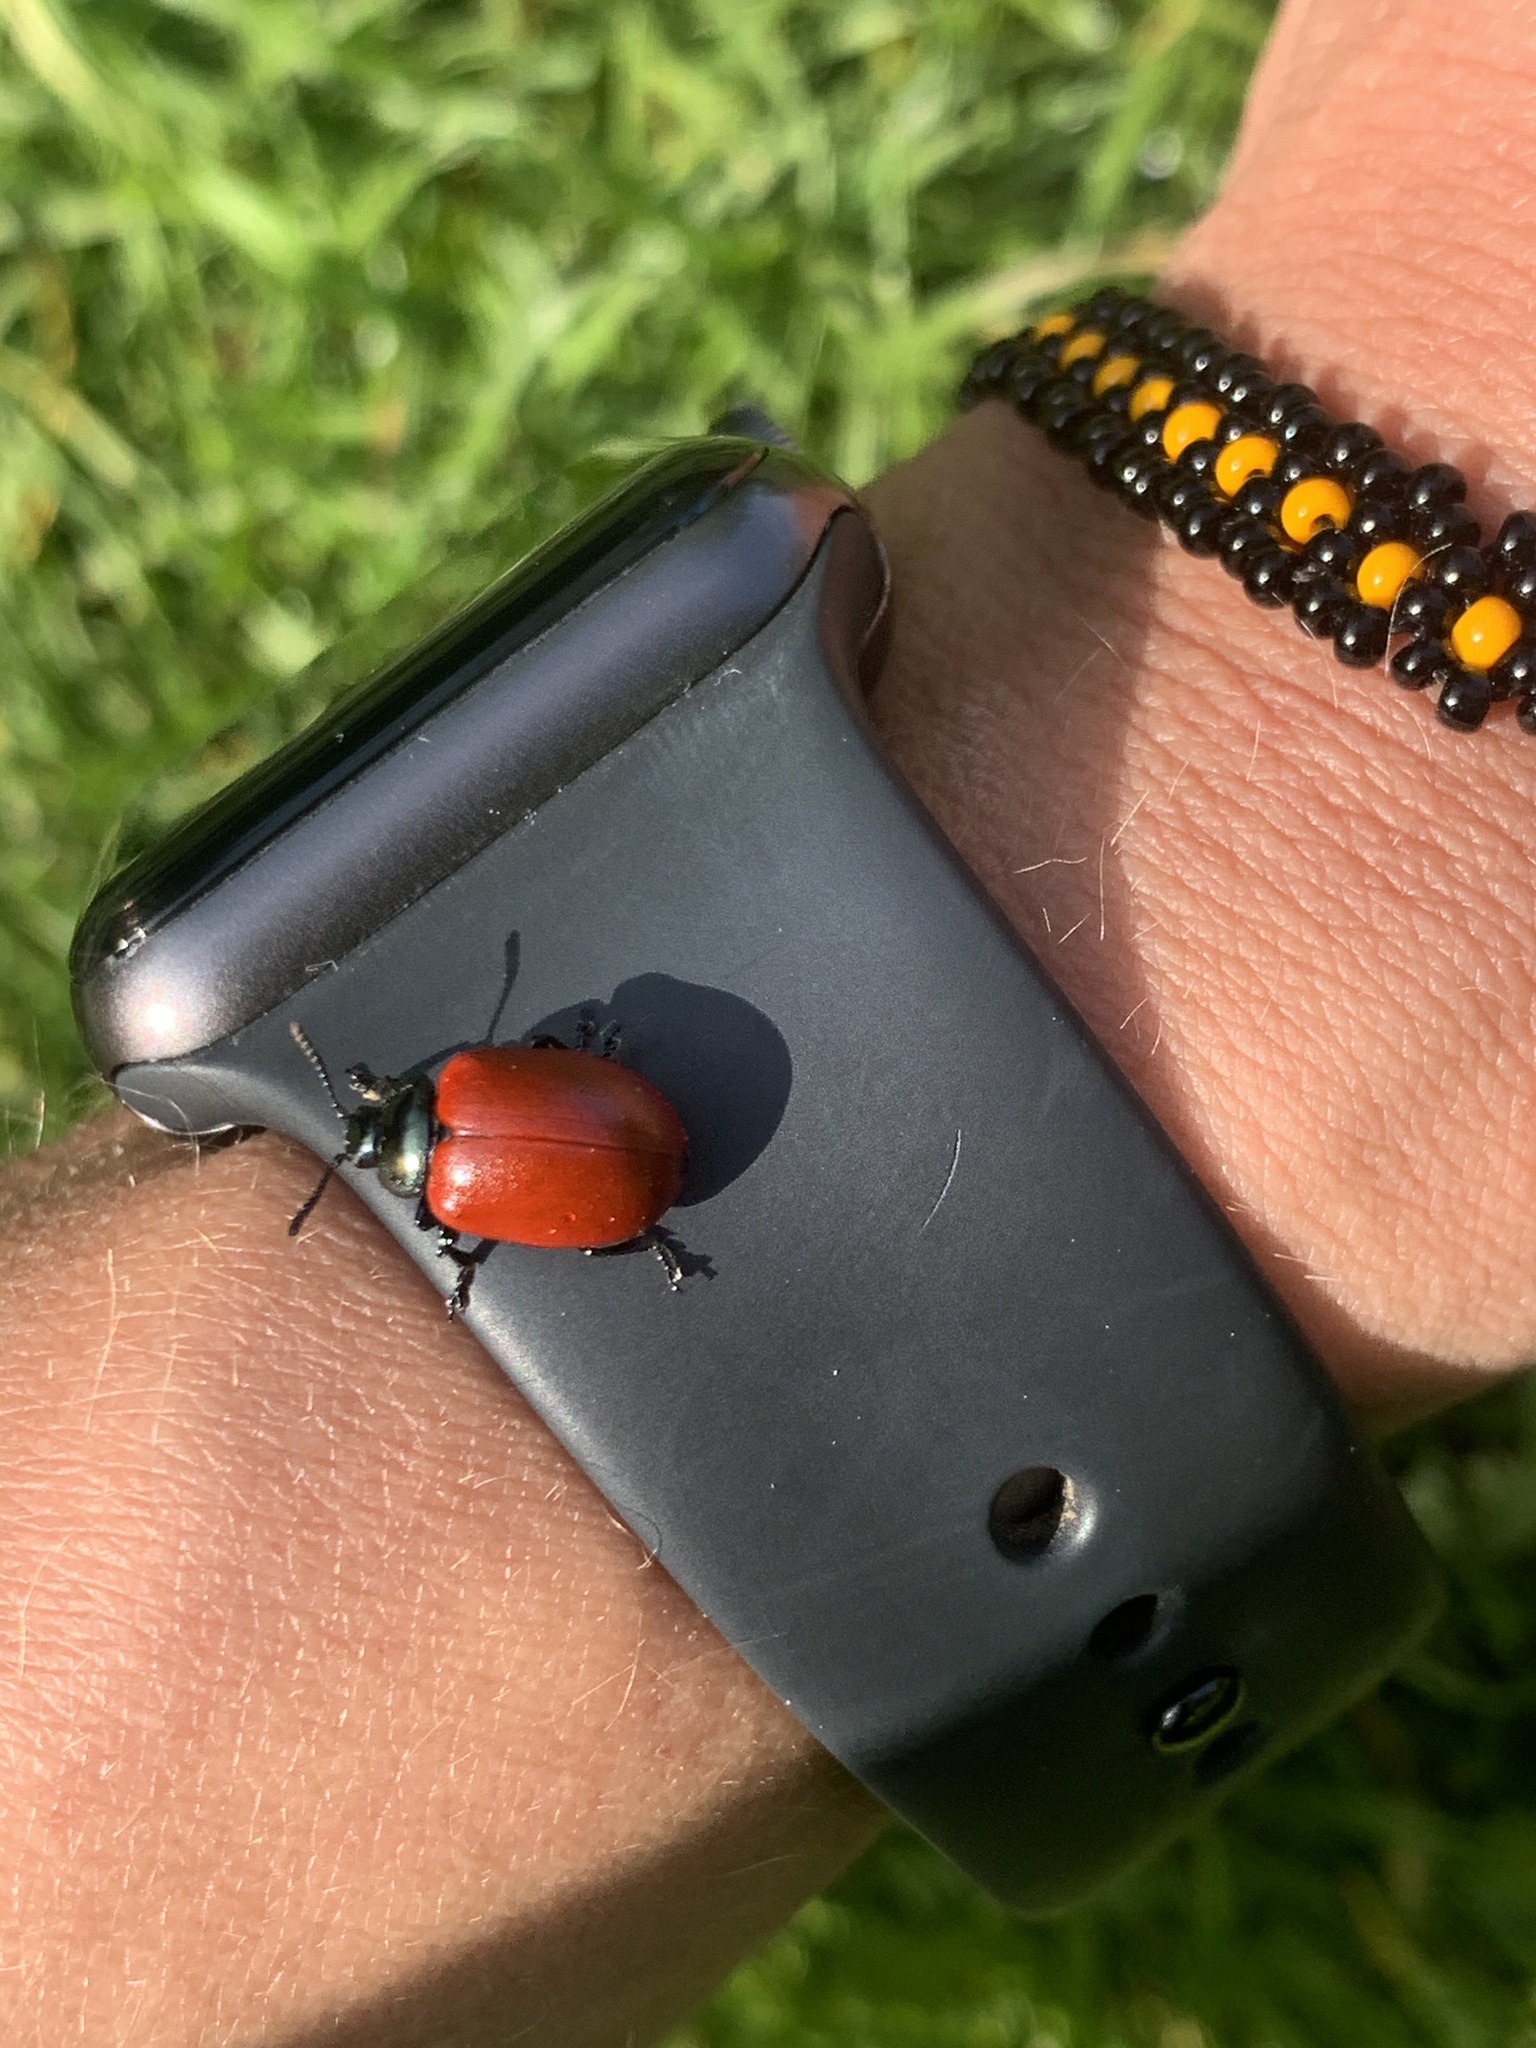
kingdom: Animalia
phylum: Arthropoda
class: Insecta
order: Coleoptera
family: Chrysomelidae
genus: Chrysomela
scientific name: Chrysomela populi
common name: Red poplar leaf beetle
